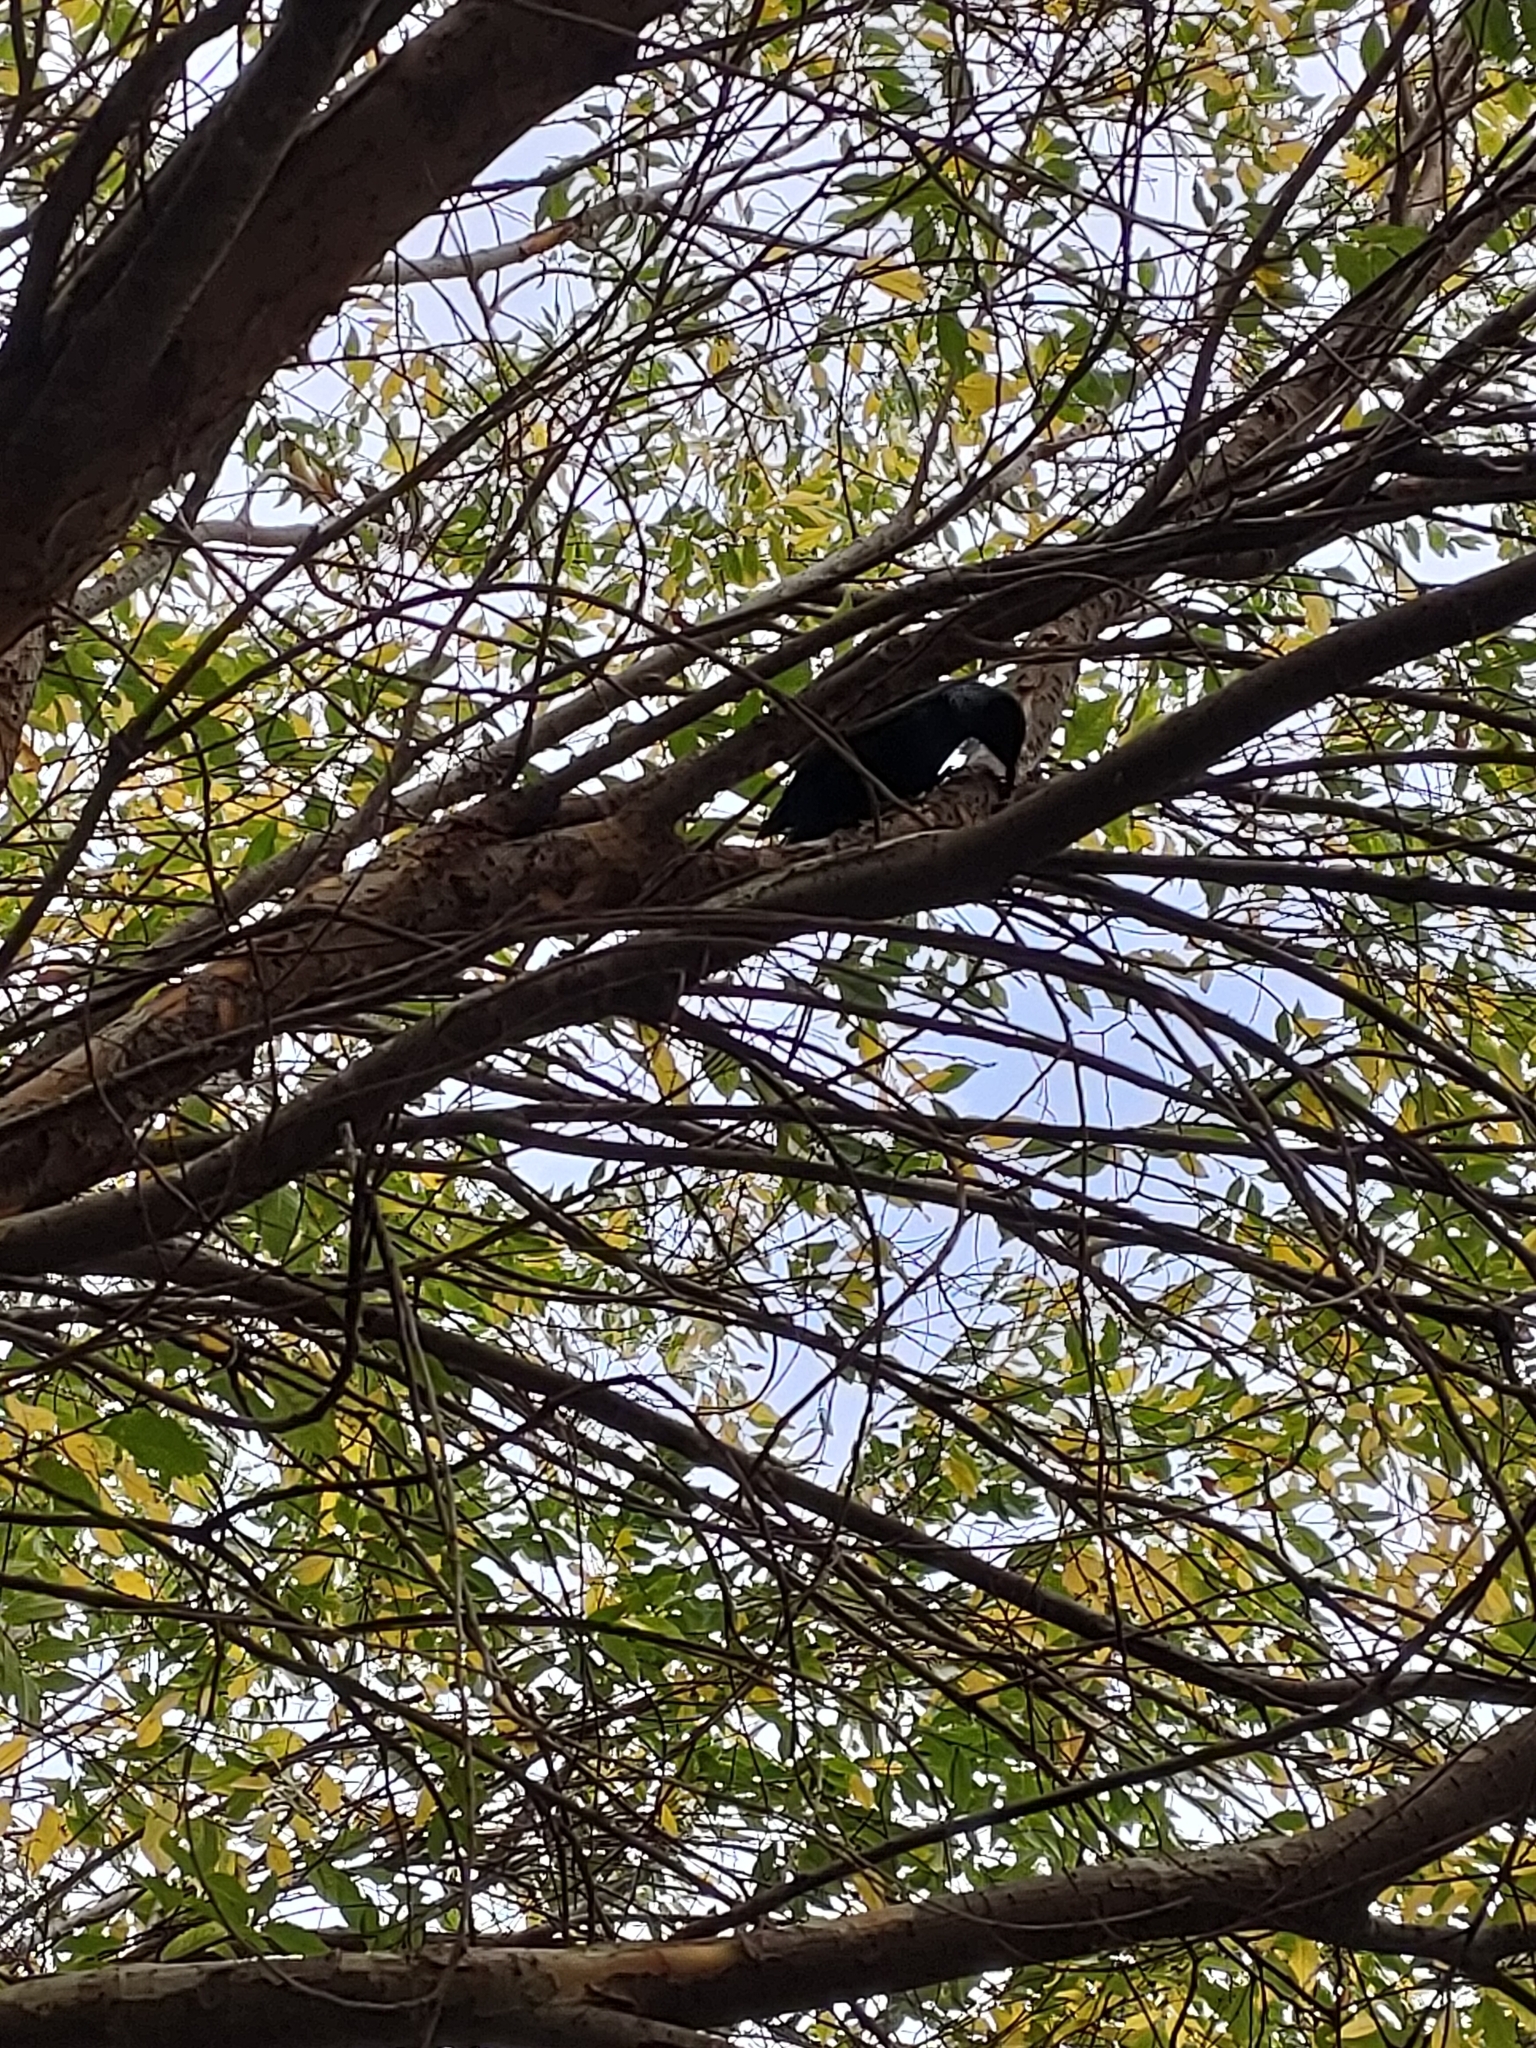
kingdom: Animalia
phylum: Chordata
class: Aves
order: Passeriformes
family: Meliphagidae
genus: Prosthemadera
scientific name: Prosthemadera novaeseelandiae
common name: Tui
